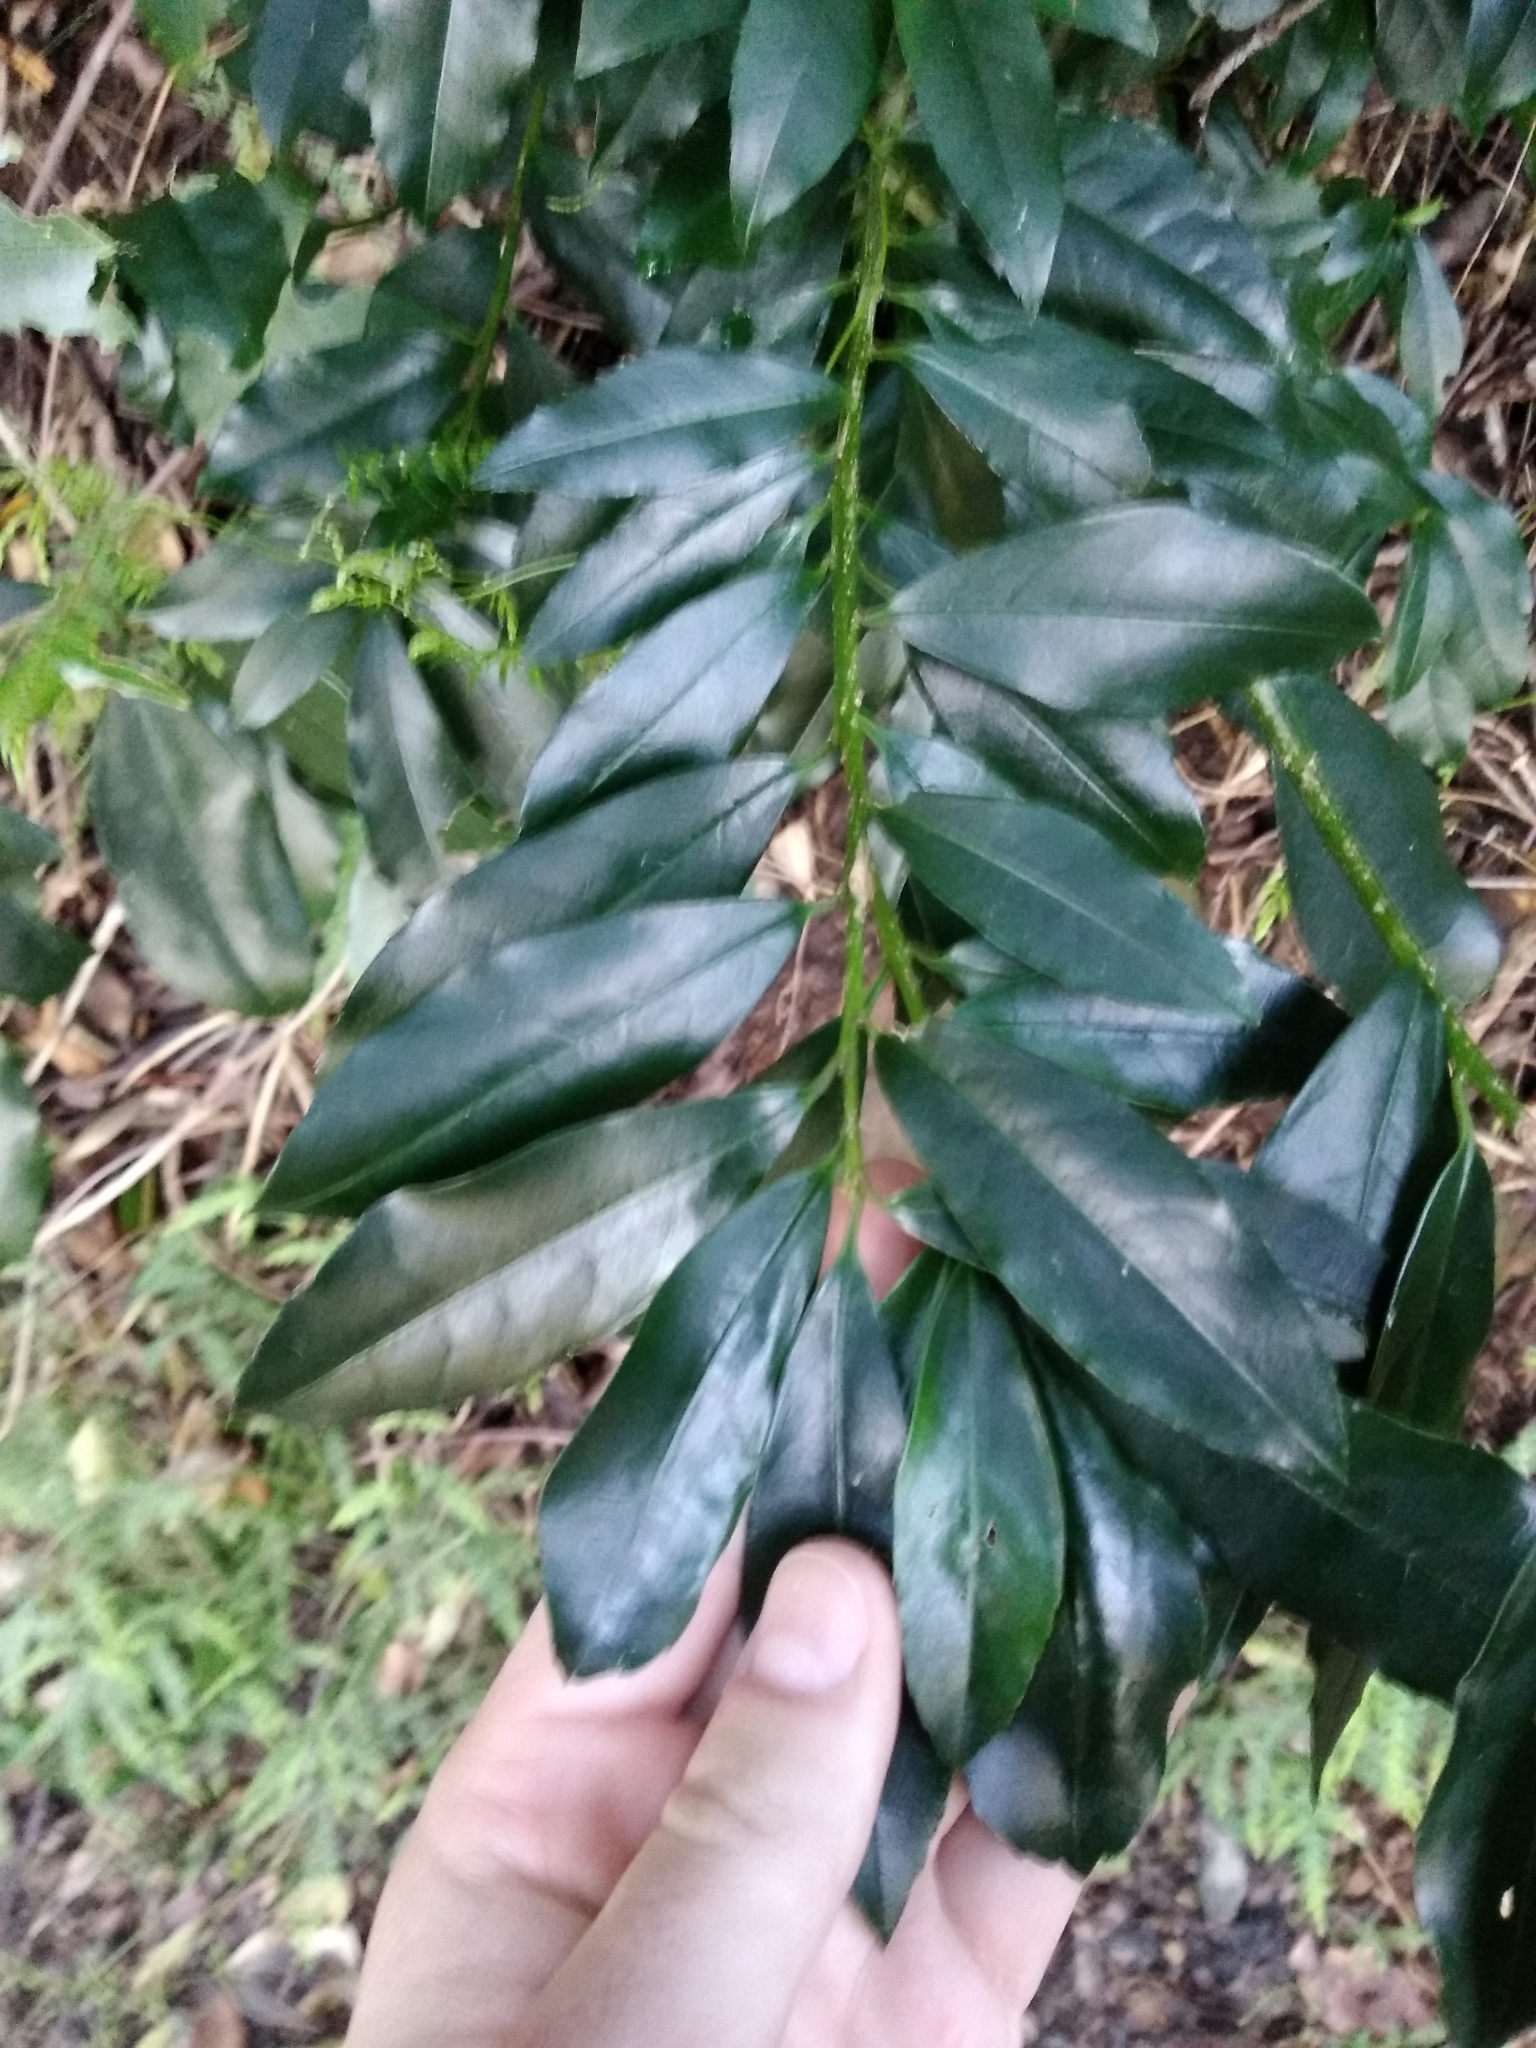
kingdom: Plantae
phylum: Tracheophyta
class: Magnoliopsida
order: Aquifoliales
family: Aquifoliaceae
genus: Ilex
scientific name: Ilex mitis
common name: African holly
